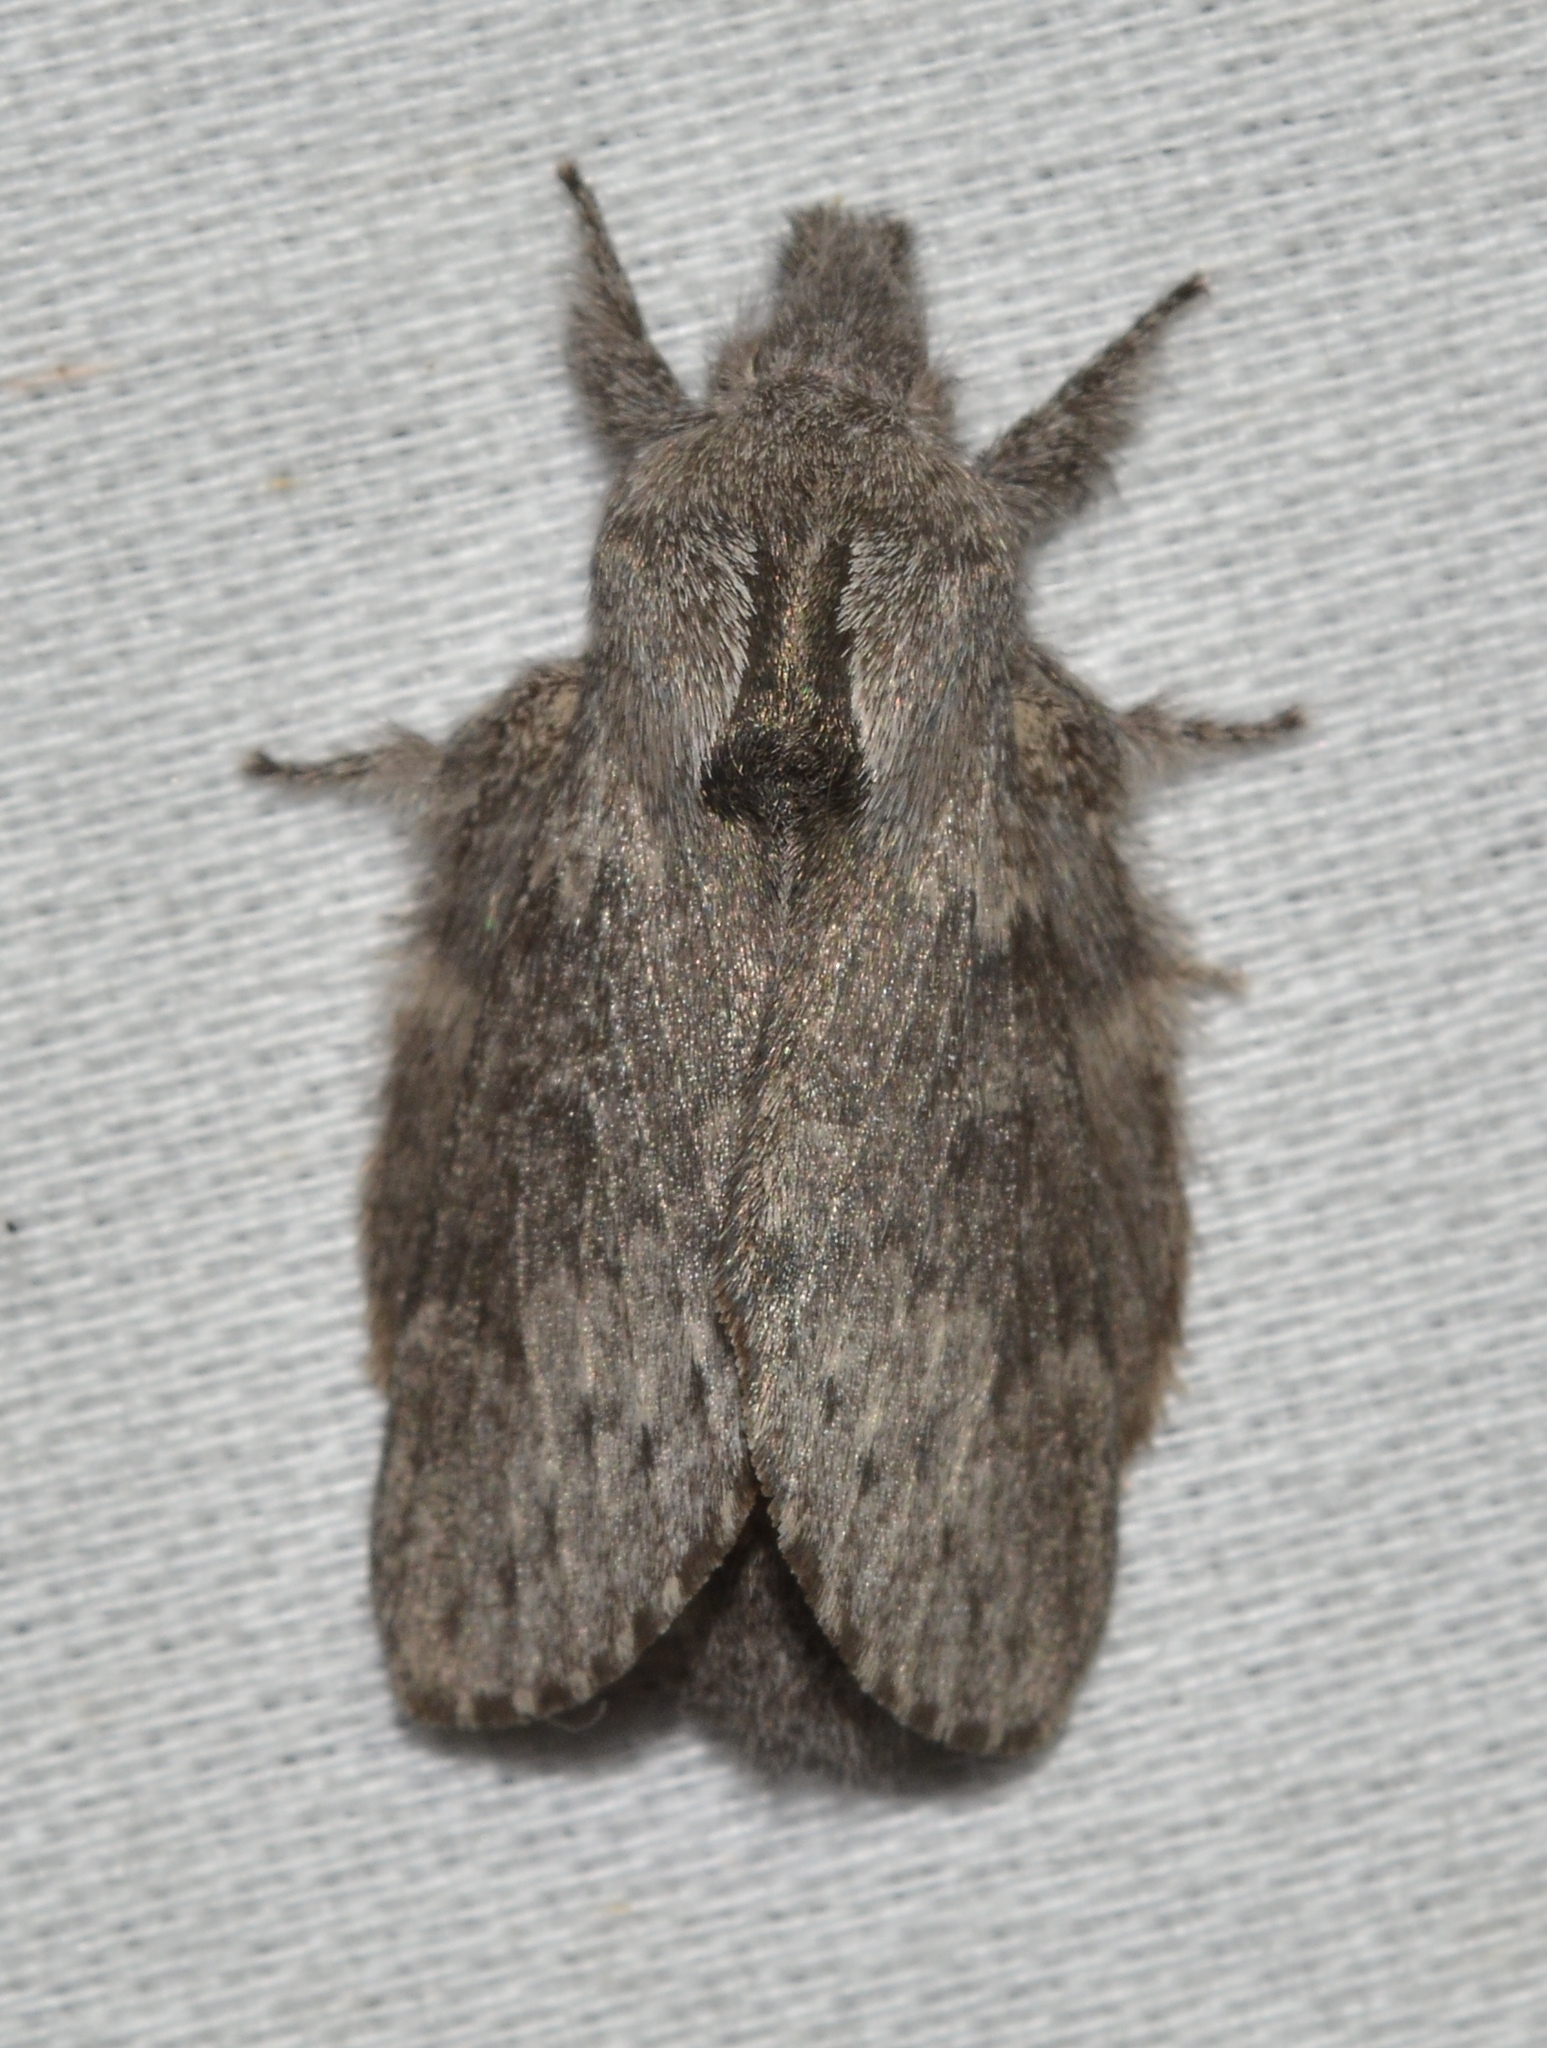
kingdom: Animalia
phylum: Arthropoda
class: Insecta
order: Lepidoptera
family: Lasiocampidae
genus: Heteropacha
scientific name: Heteropacha rileyana
